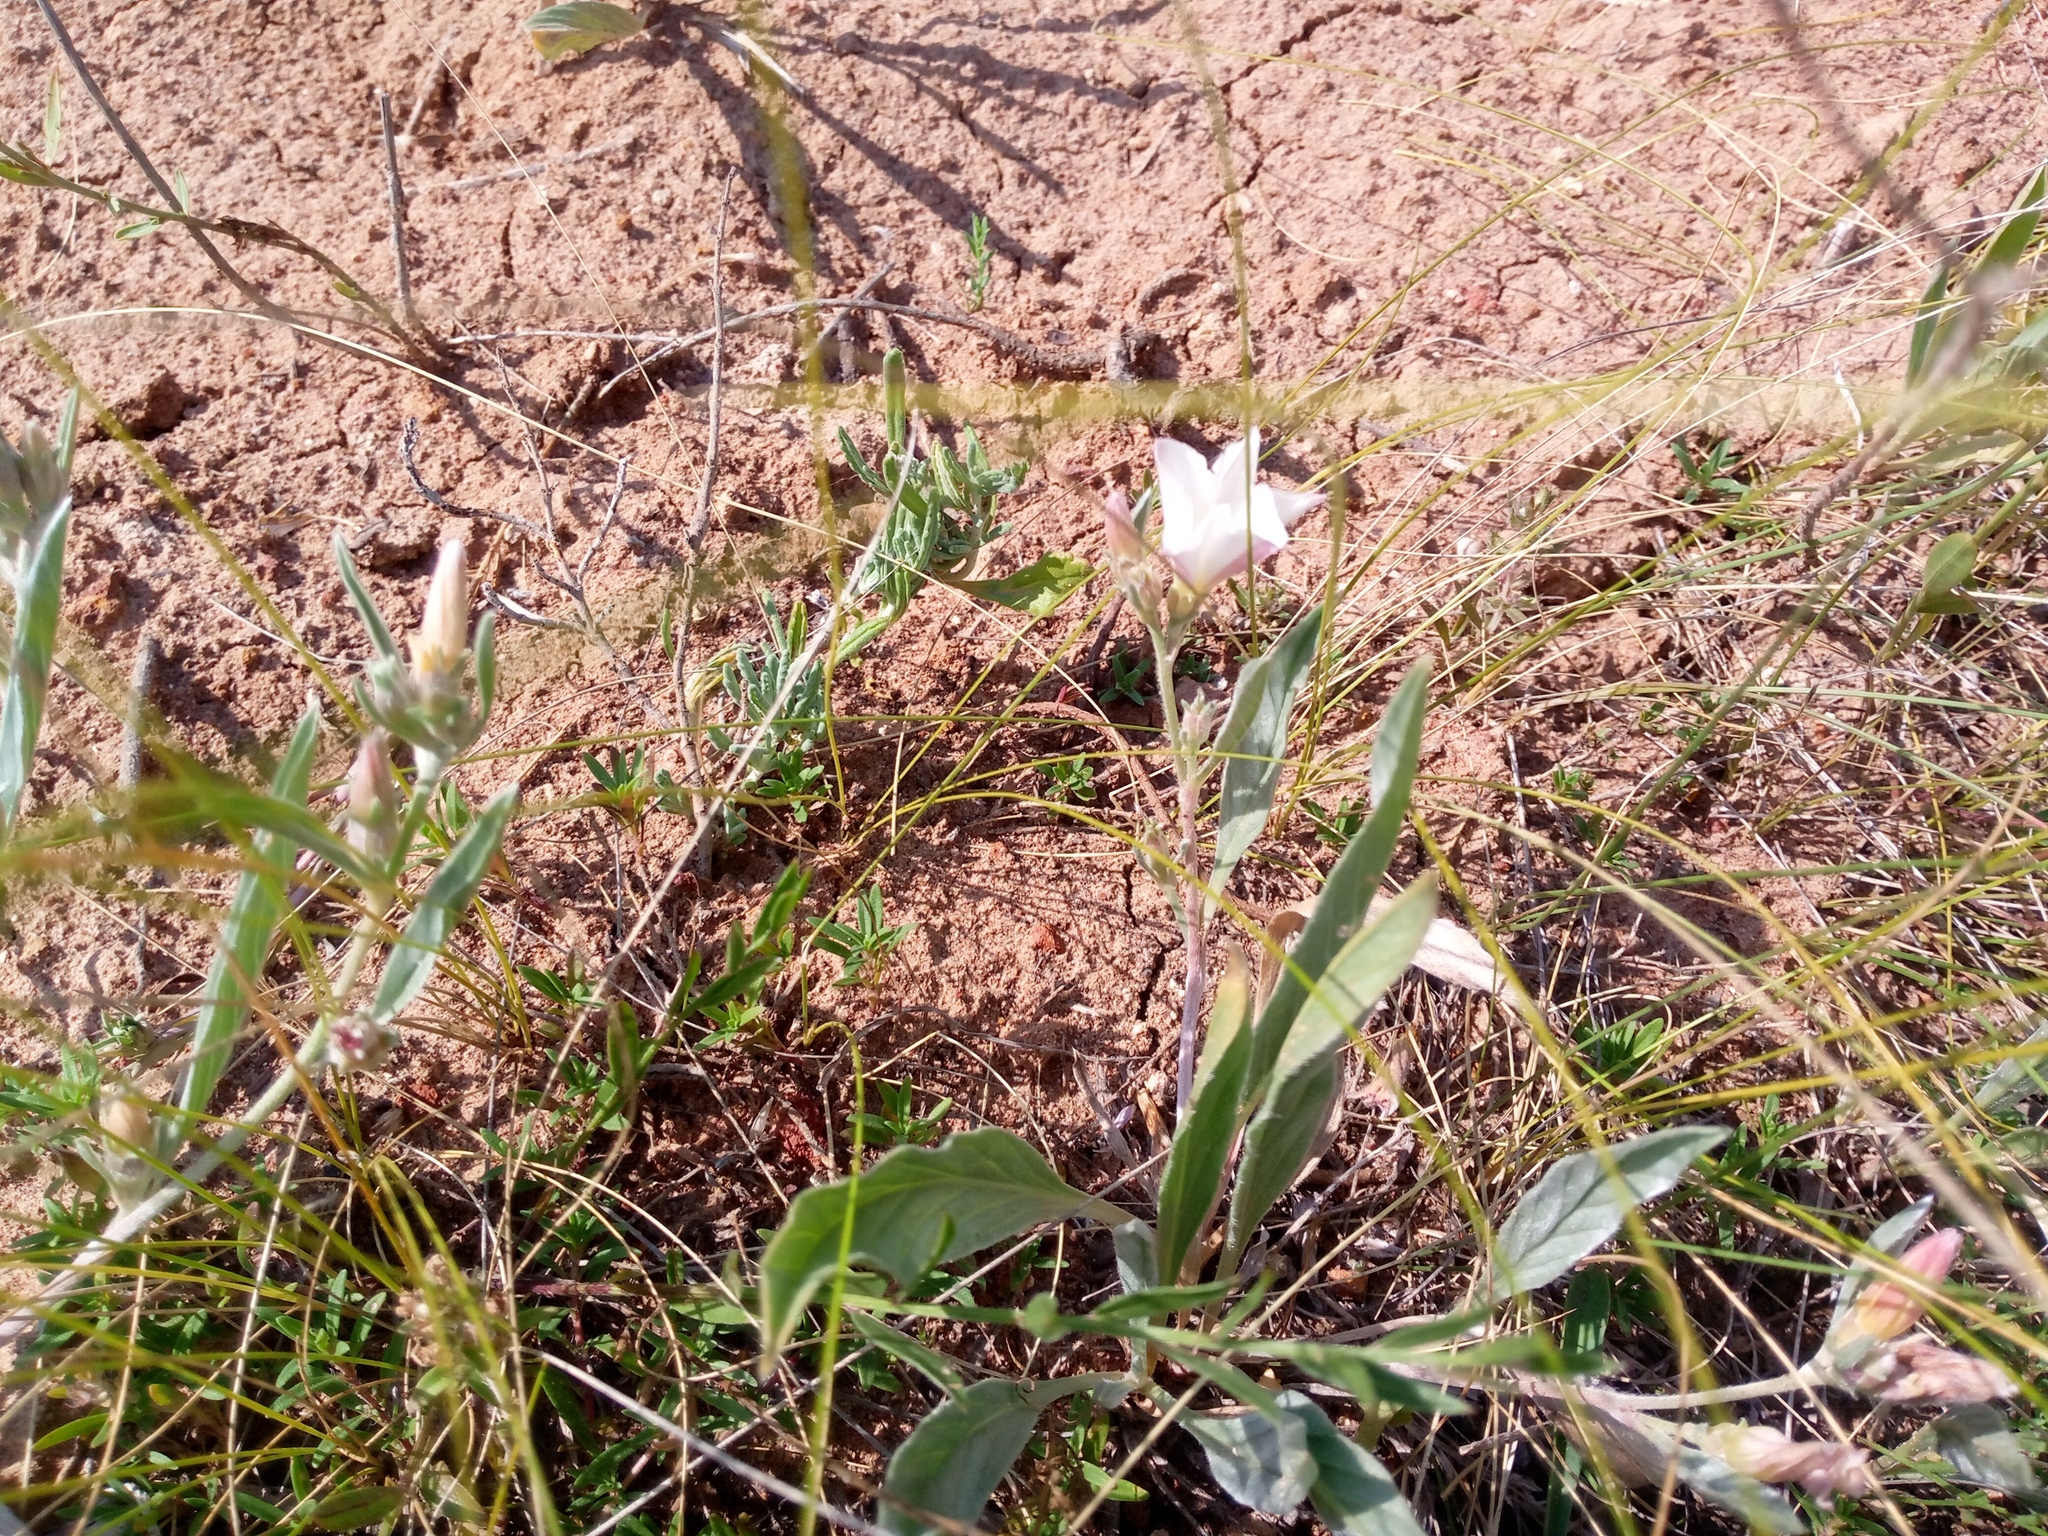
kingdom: Plantae
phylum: Tracheophyta
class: Magnoliopsida
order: Solanales
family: Convolvulaceae
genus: Convolvulus
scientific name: Convolvulus lineatus
